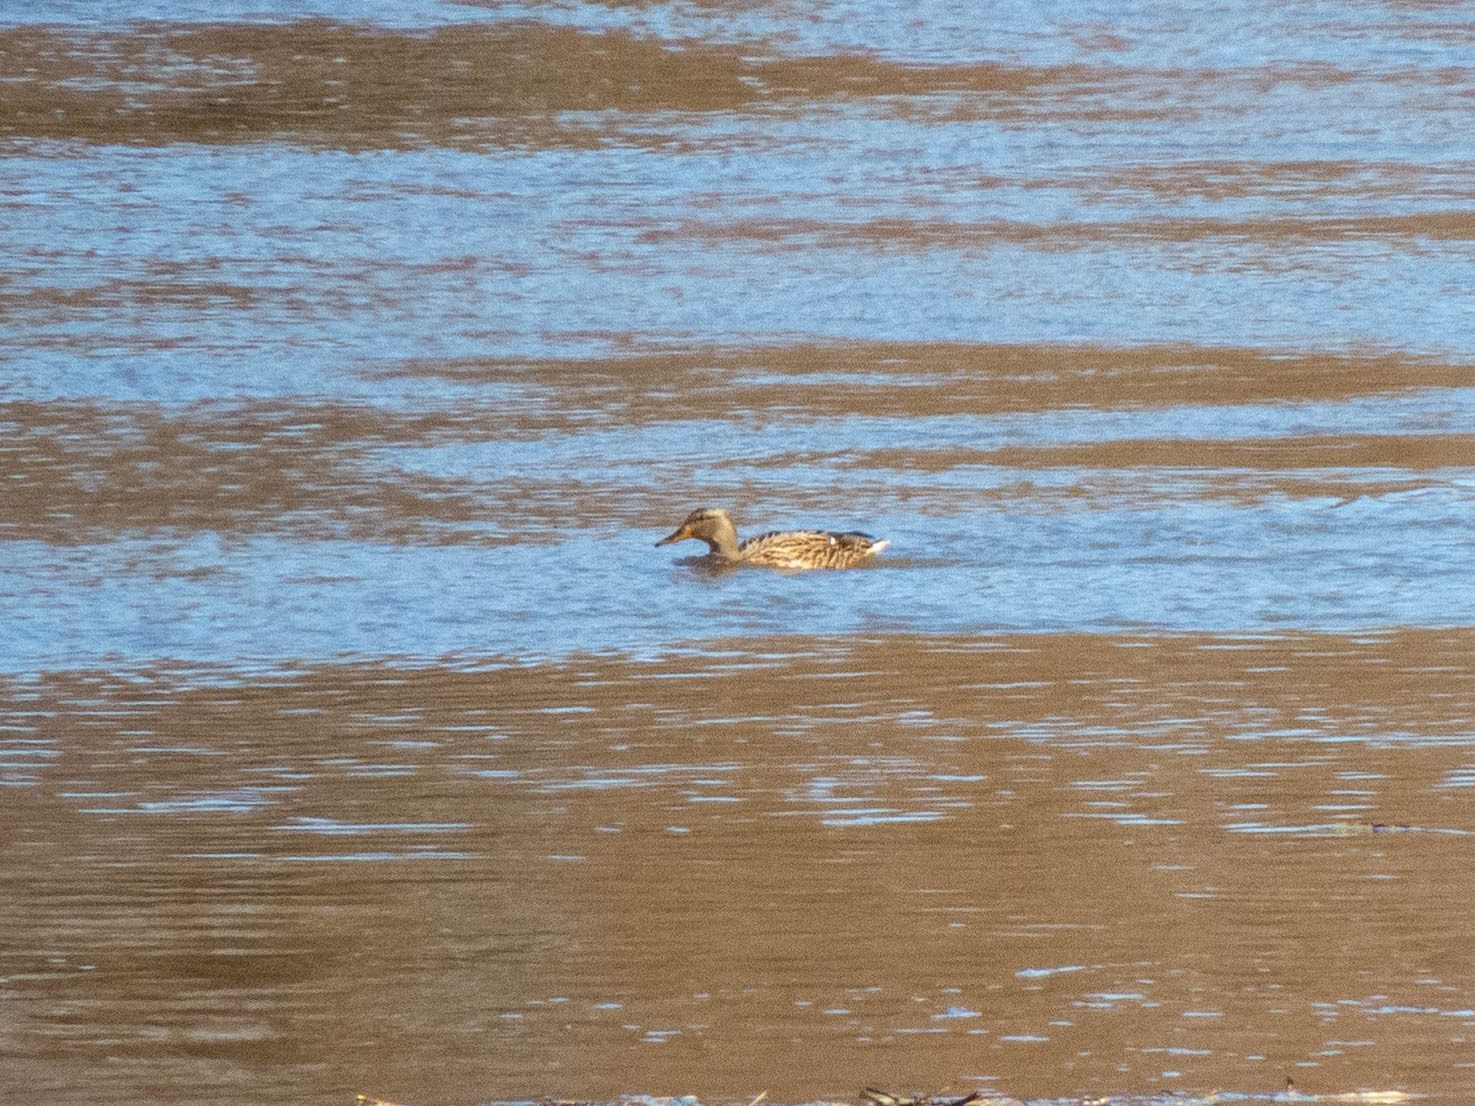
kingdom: Animalia
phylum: Chordata
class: Aves
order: Anseriformes
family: Anatidae
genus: Anas
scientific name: Anas platyrhynchos
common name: Mallard
